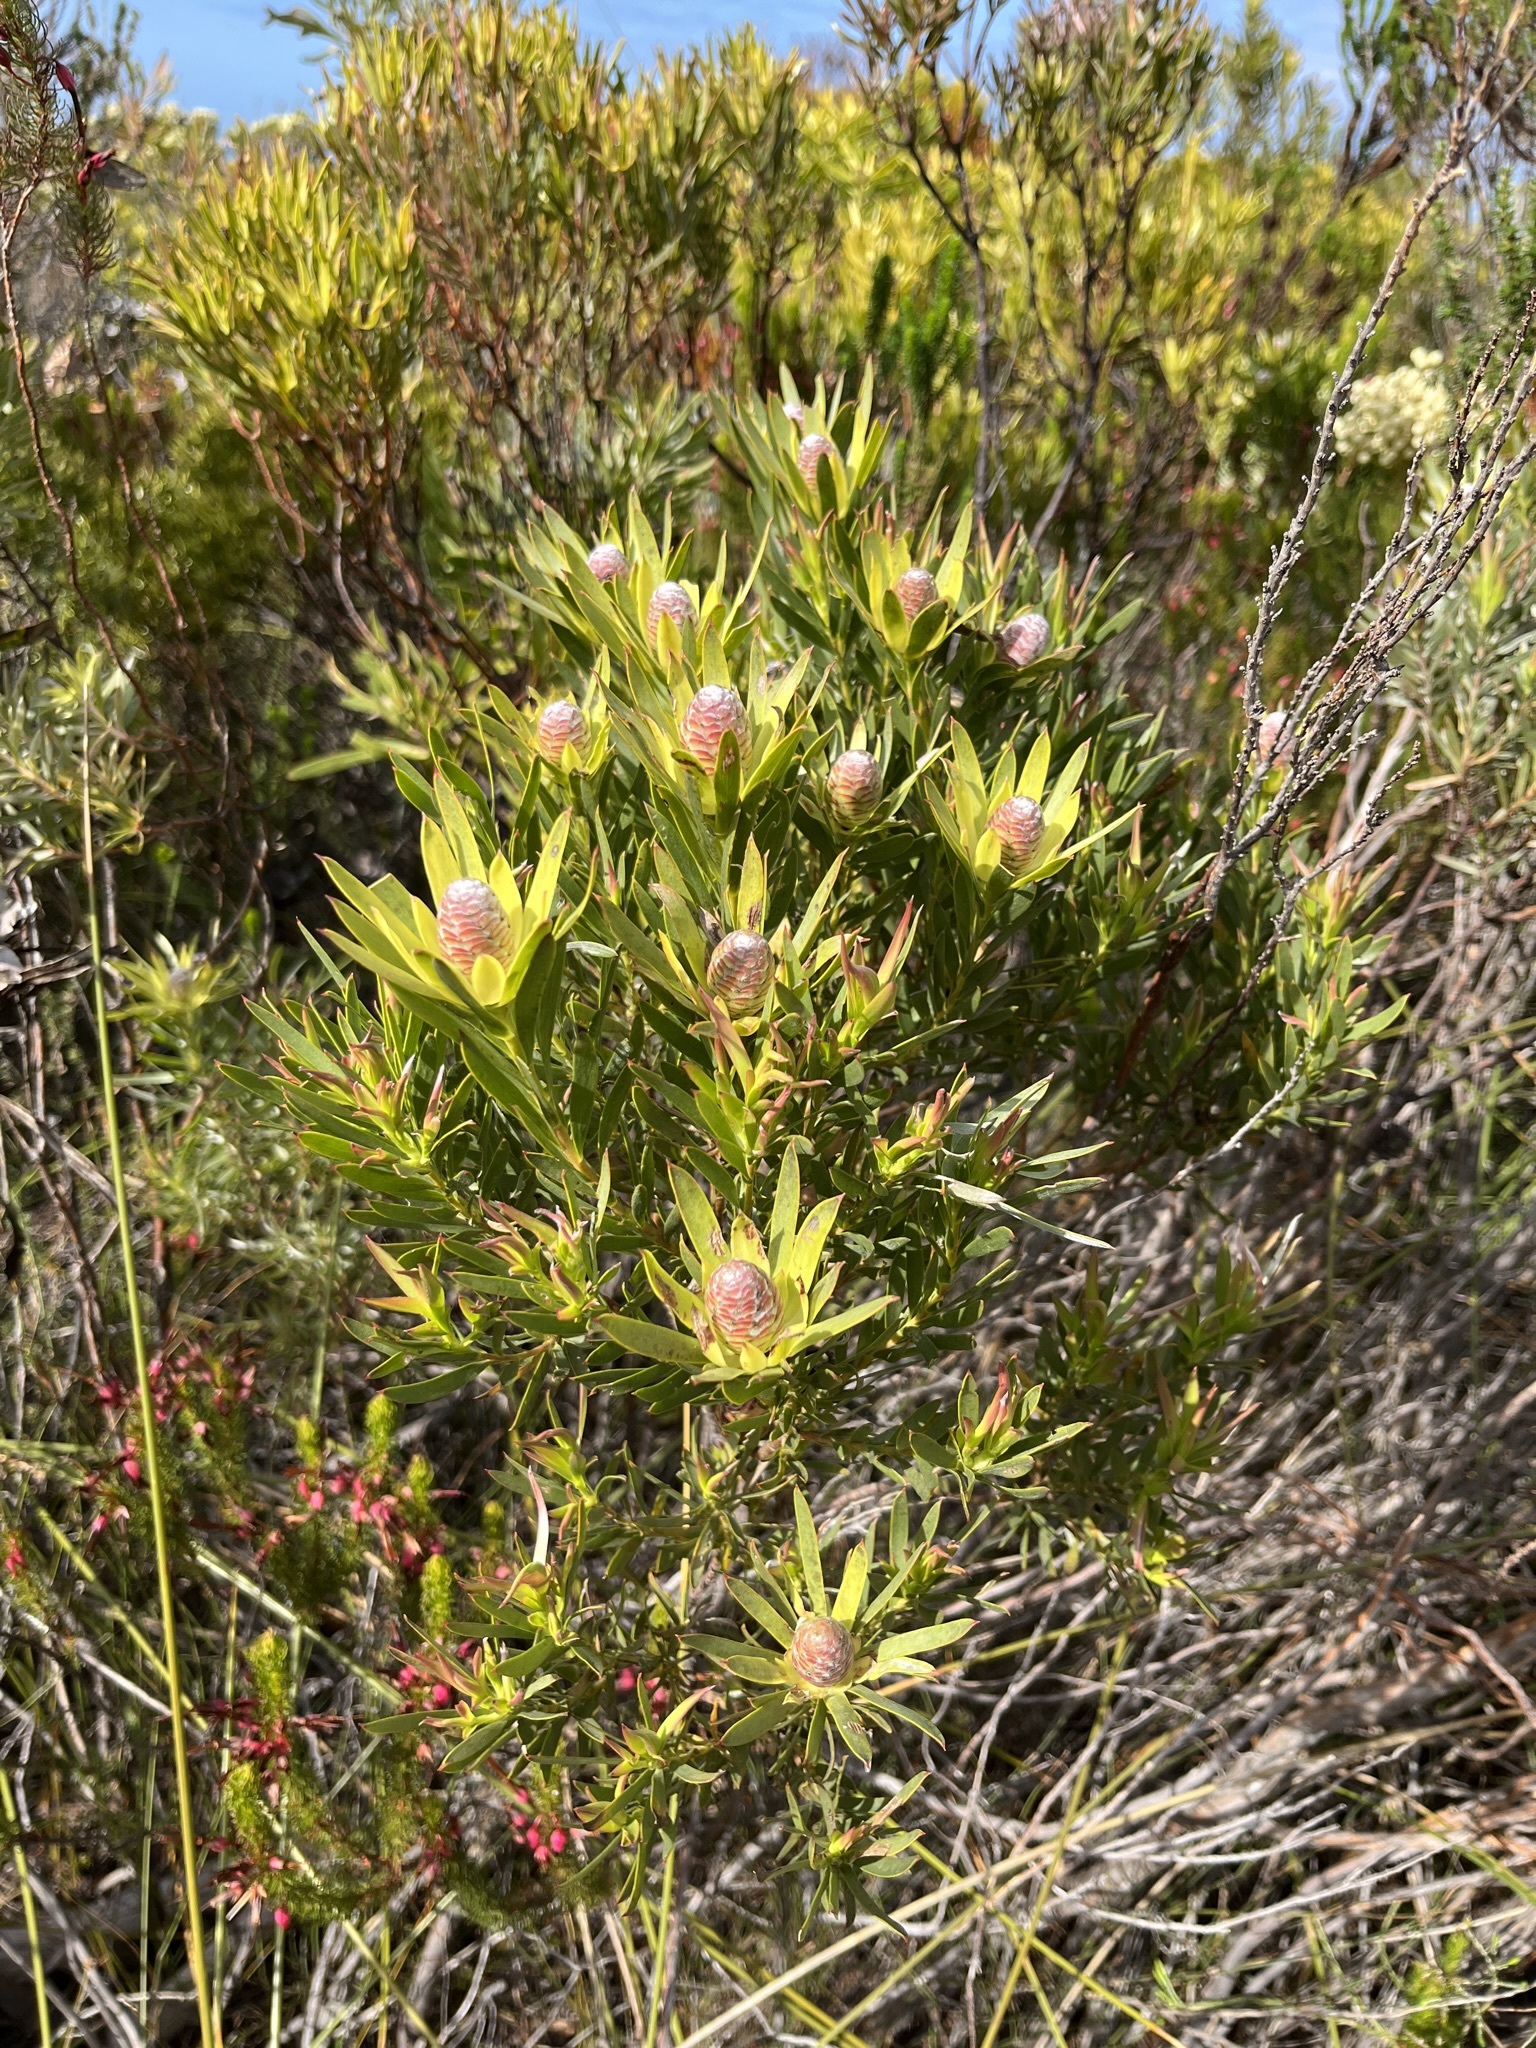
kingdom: Plantae
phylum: Tracheophyta
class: Magnoliopsida
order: Proteales
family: Proteaceae
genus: Leucadendron
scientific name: Leucadendron xanthoconus
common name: Sickle-leaf conebush
